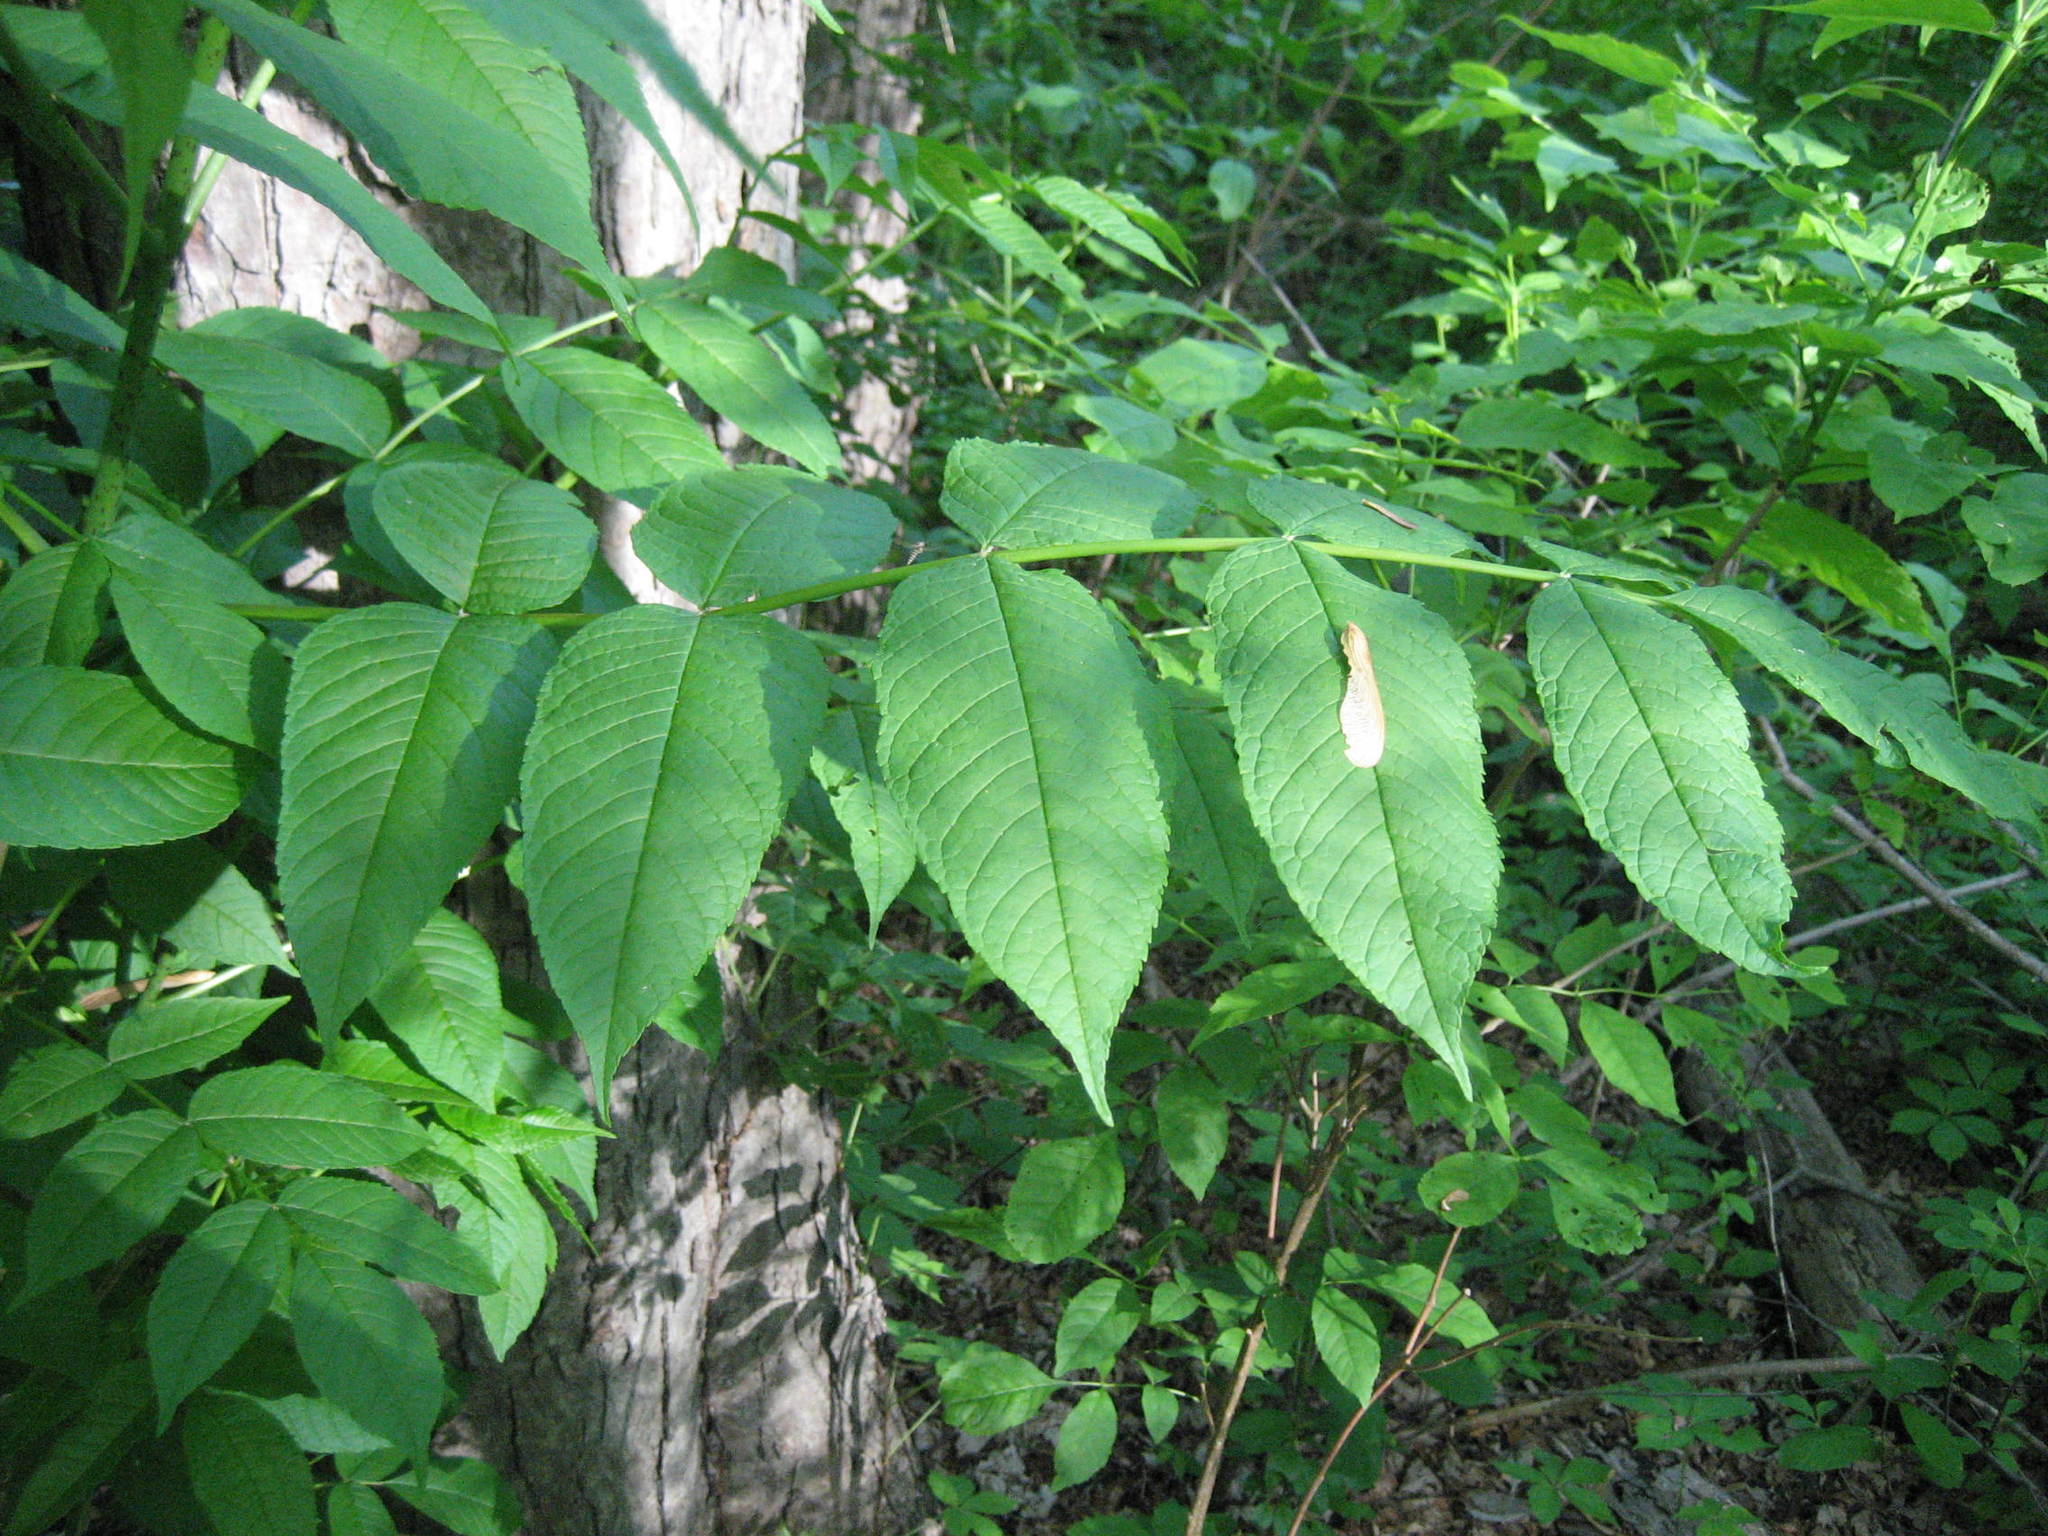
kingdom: Plantae
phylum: Tracheophyta
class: Magnoliopsida
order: Lamiales
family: Oleaceae
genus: Fraxinus
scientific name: Fraxinus nigra
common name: Black ash
